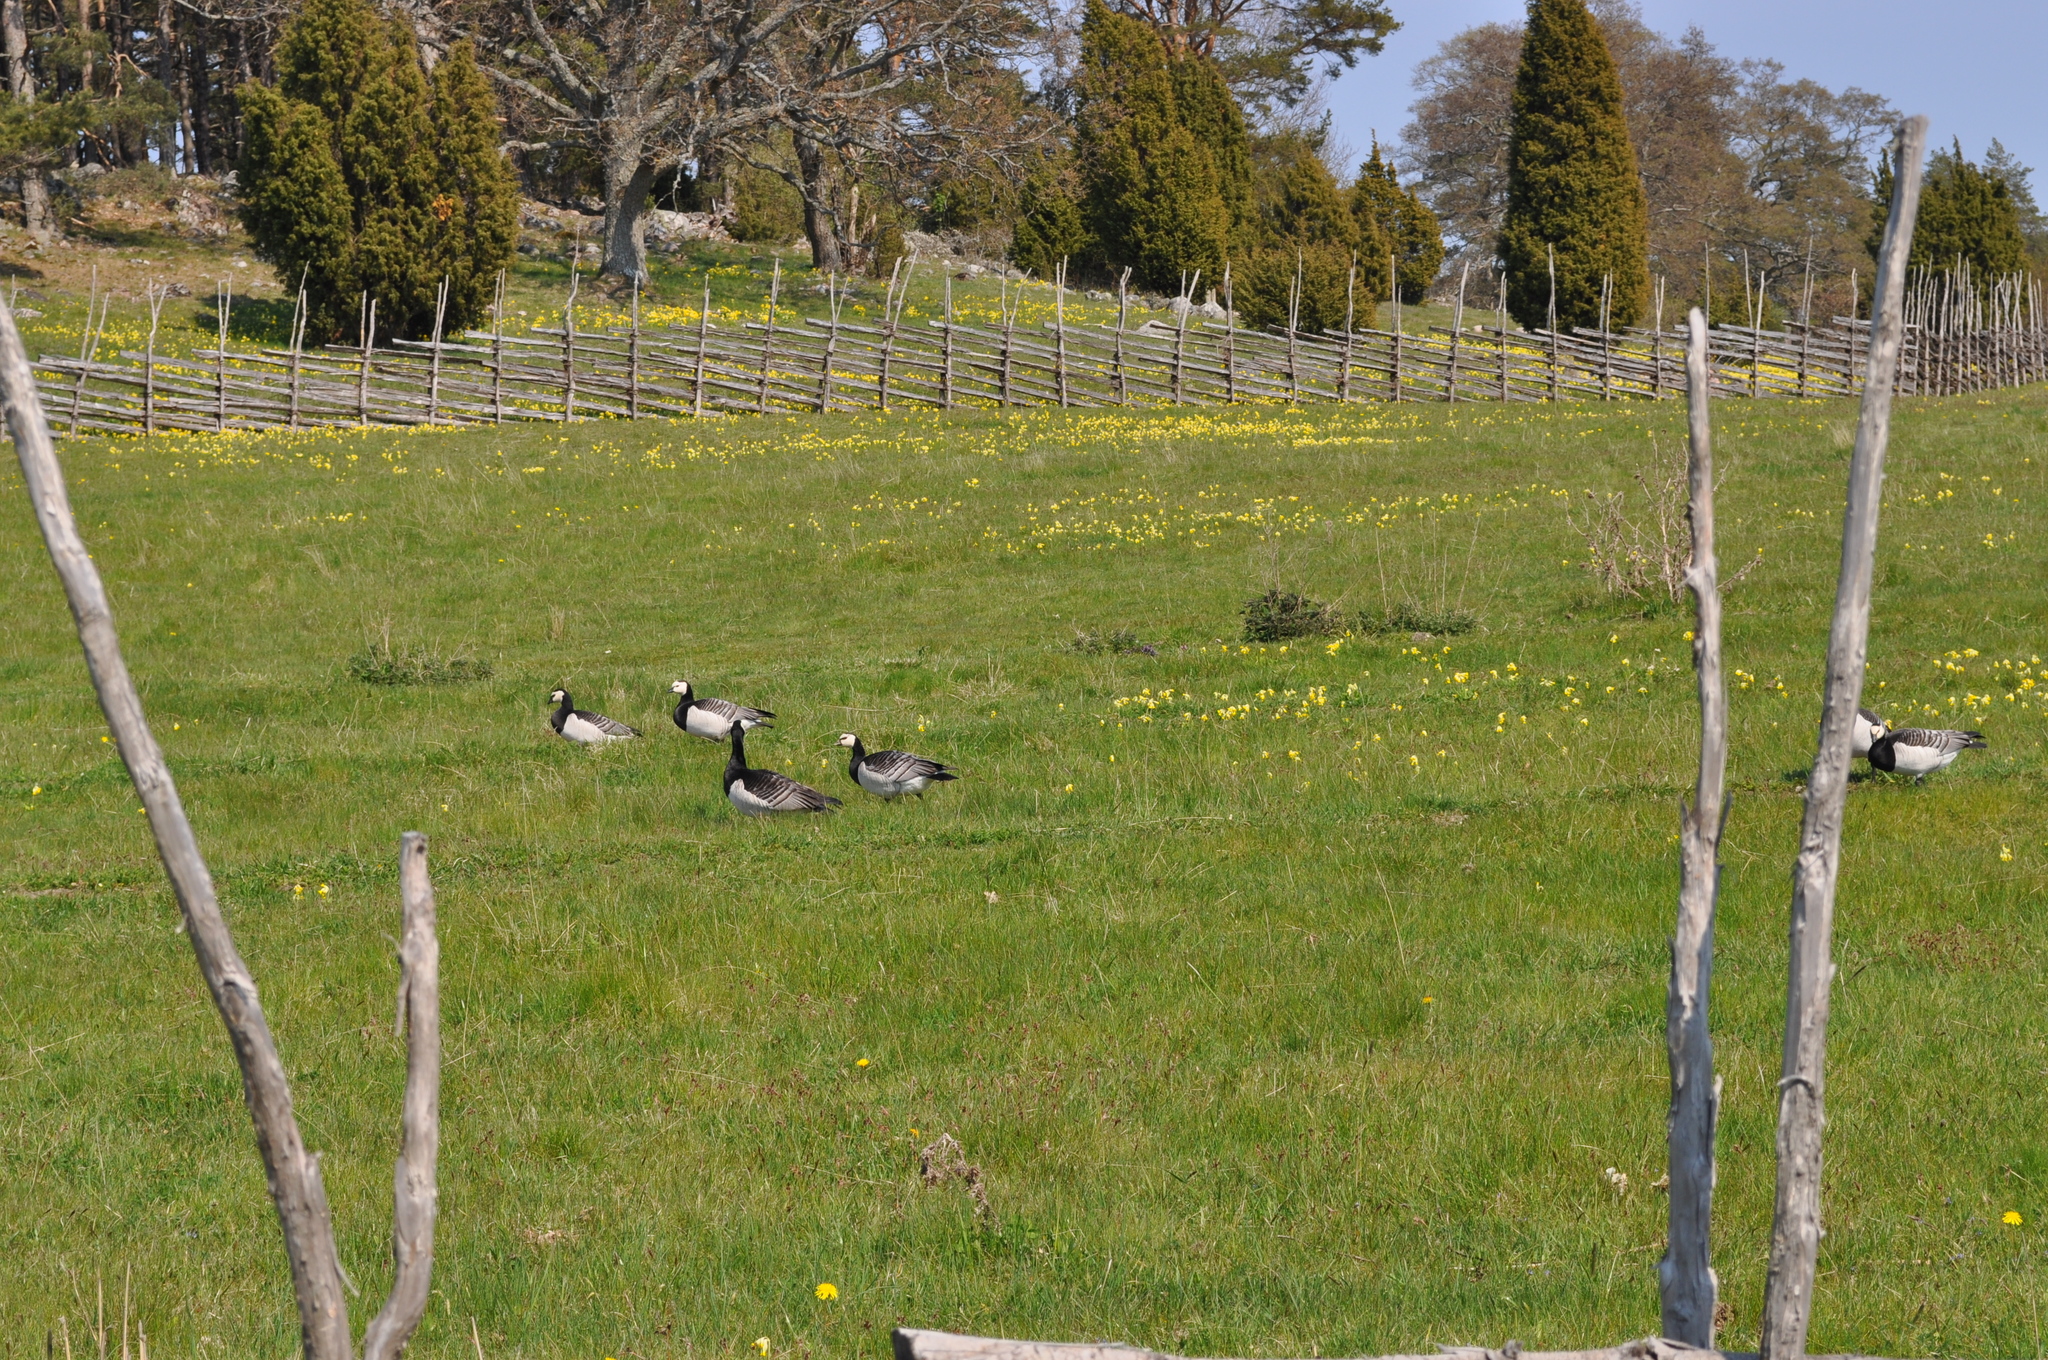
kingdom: Animalia
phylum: Chordata
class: Aves
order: Anseriformes
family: Anatidae
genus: Branta
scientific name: Branta leucopsis
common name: Barnacle goose
